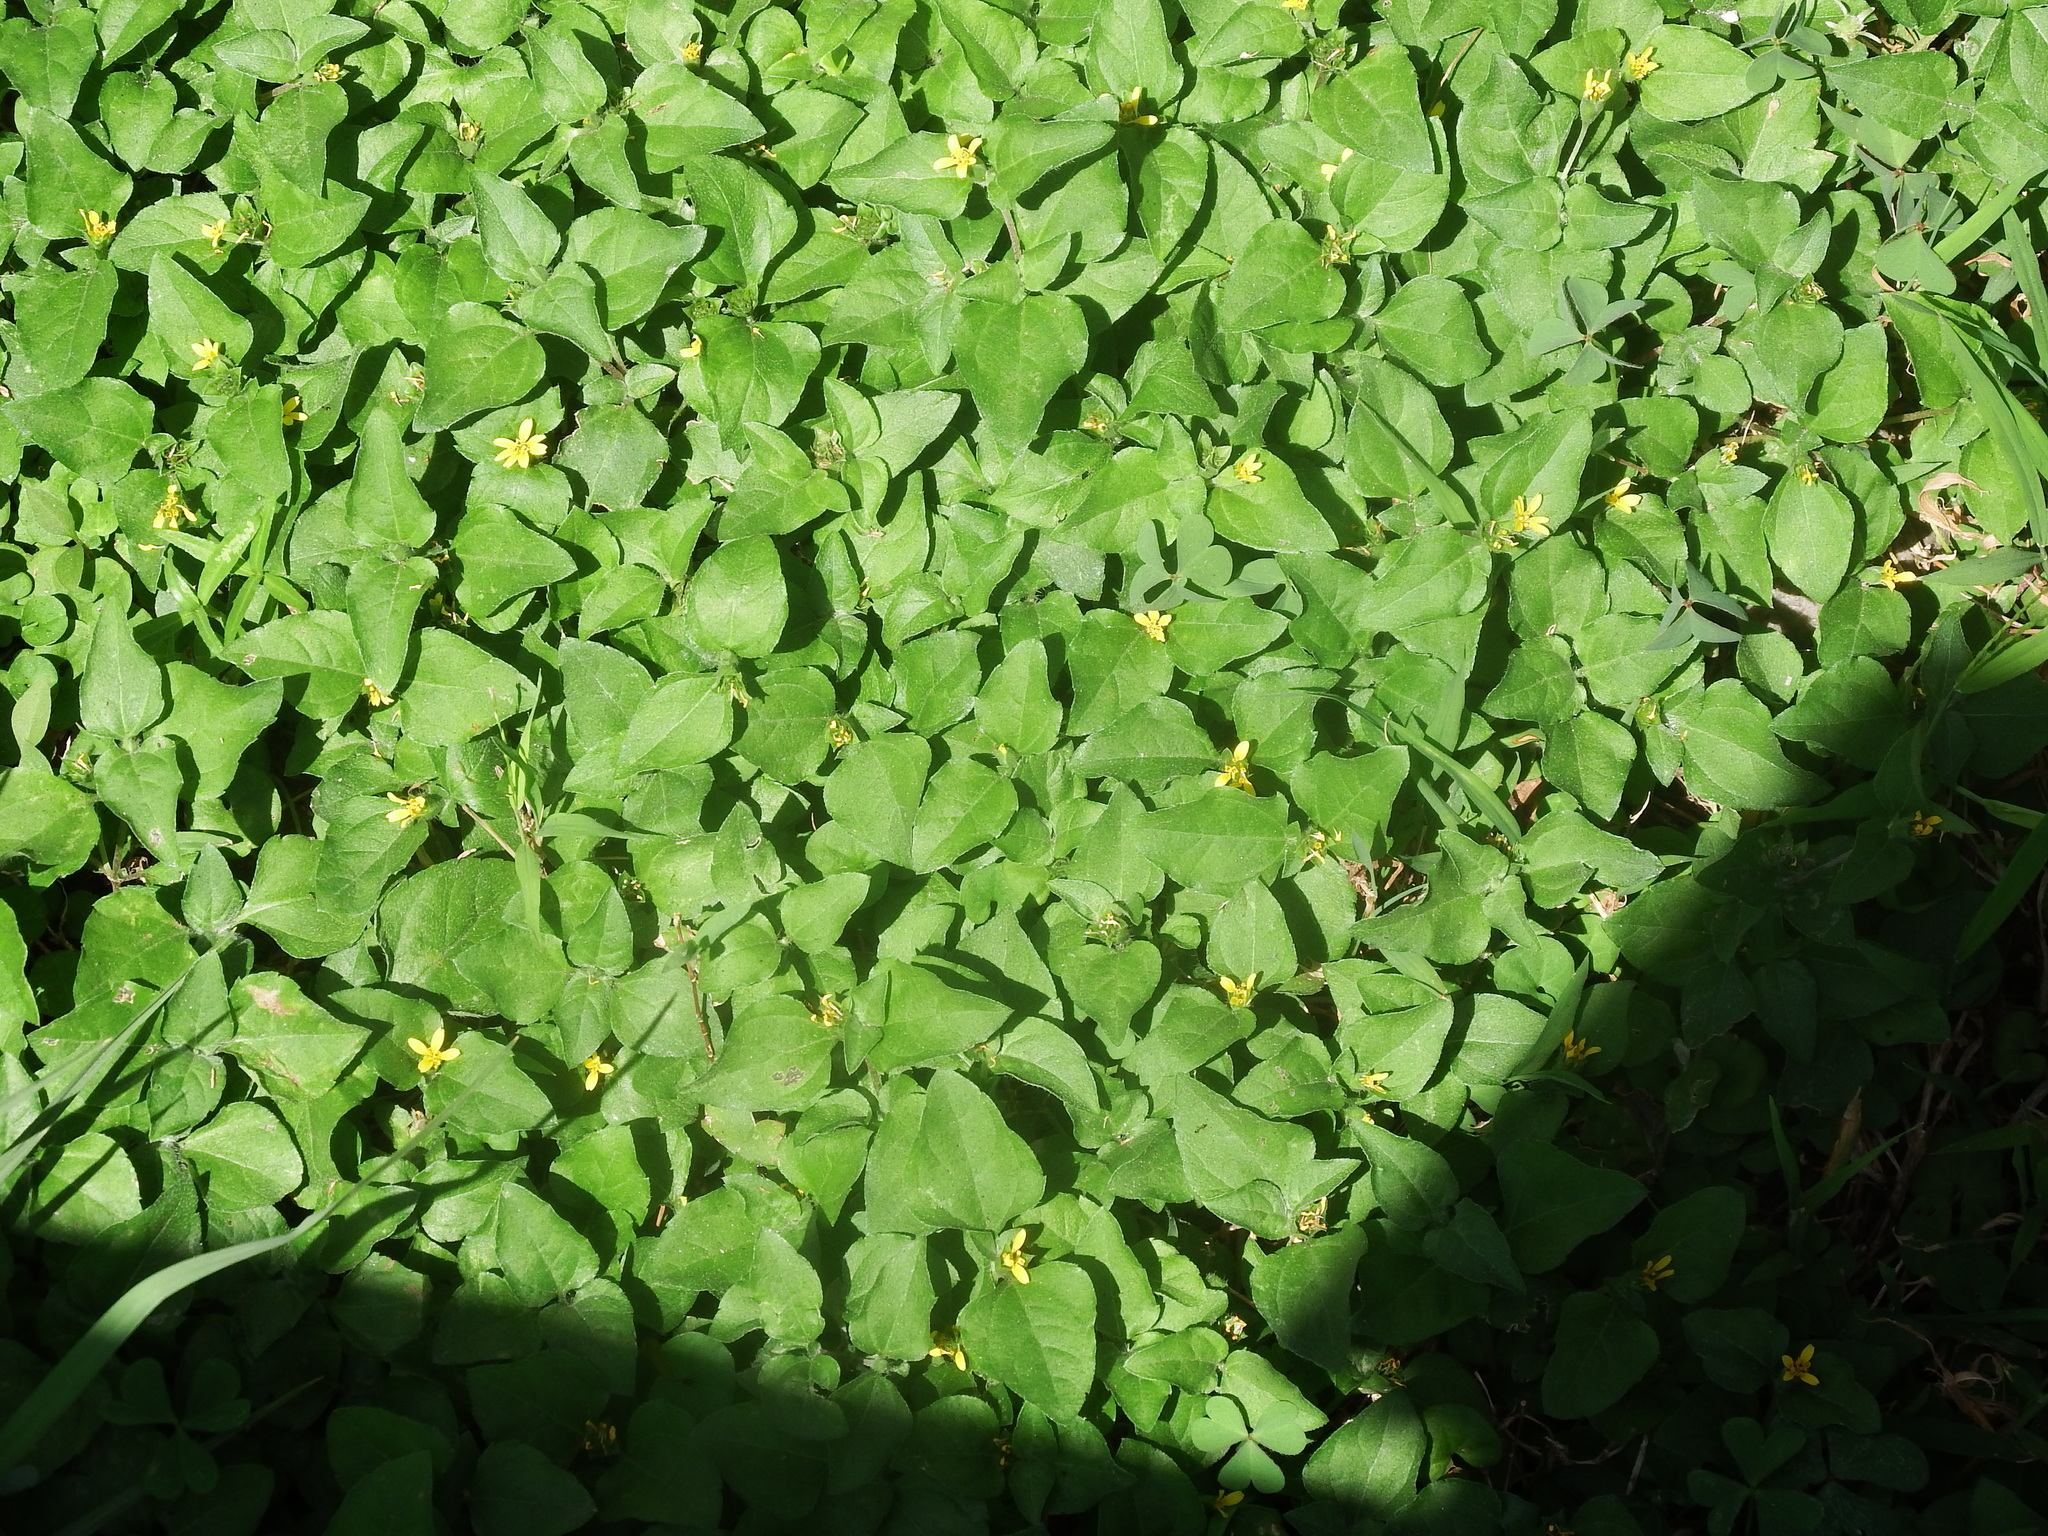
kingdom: Plantae
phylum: Tracheophyta
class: Magnoliopsida
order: Asterales
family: Asteraceae
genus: Calyptocarpus
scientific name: Calyptocarpus vialis
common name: Straggler daisy
